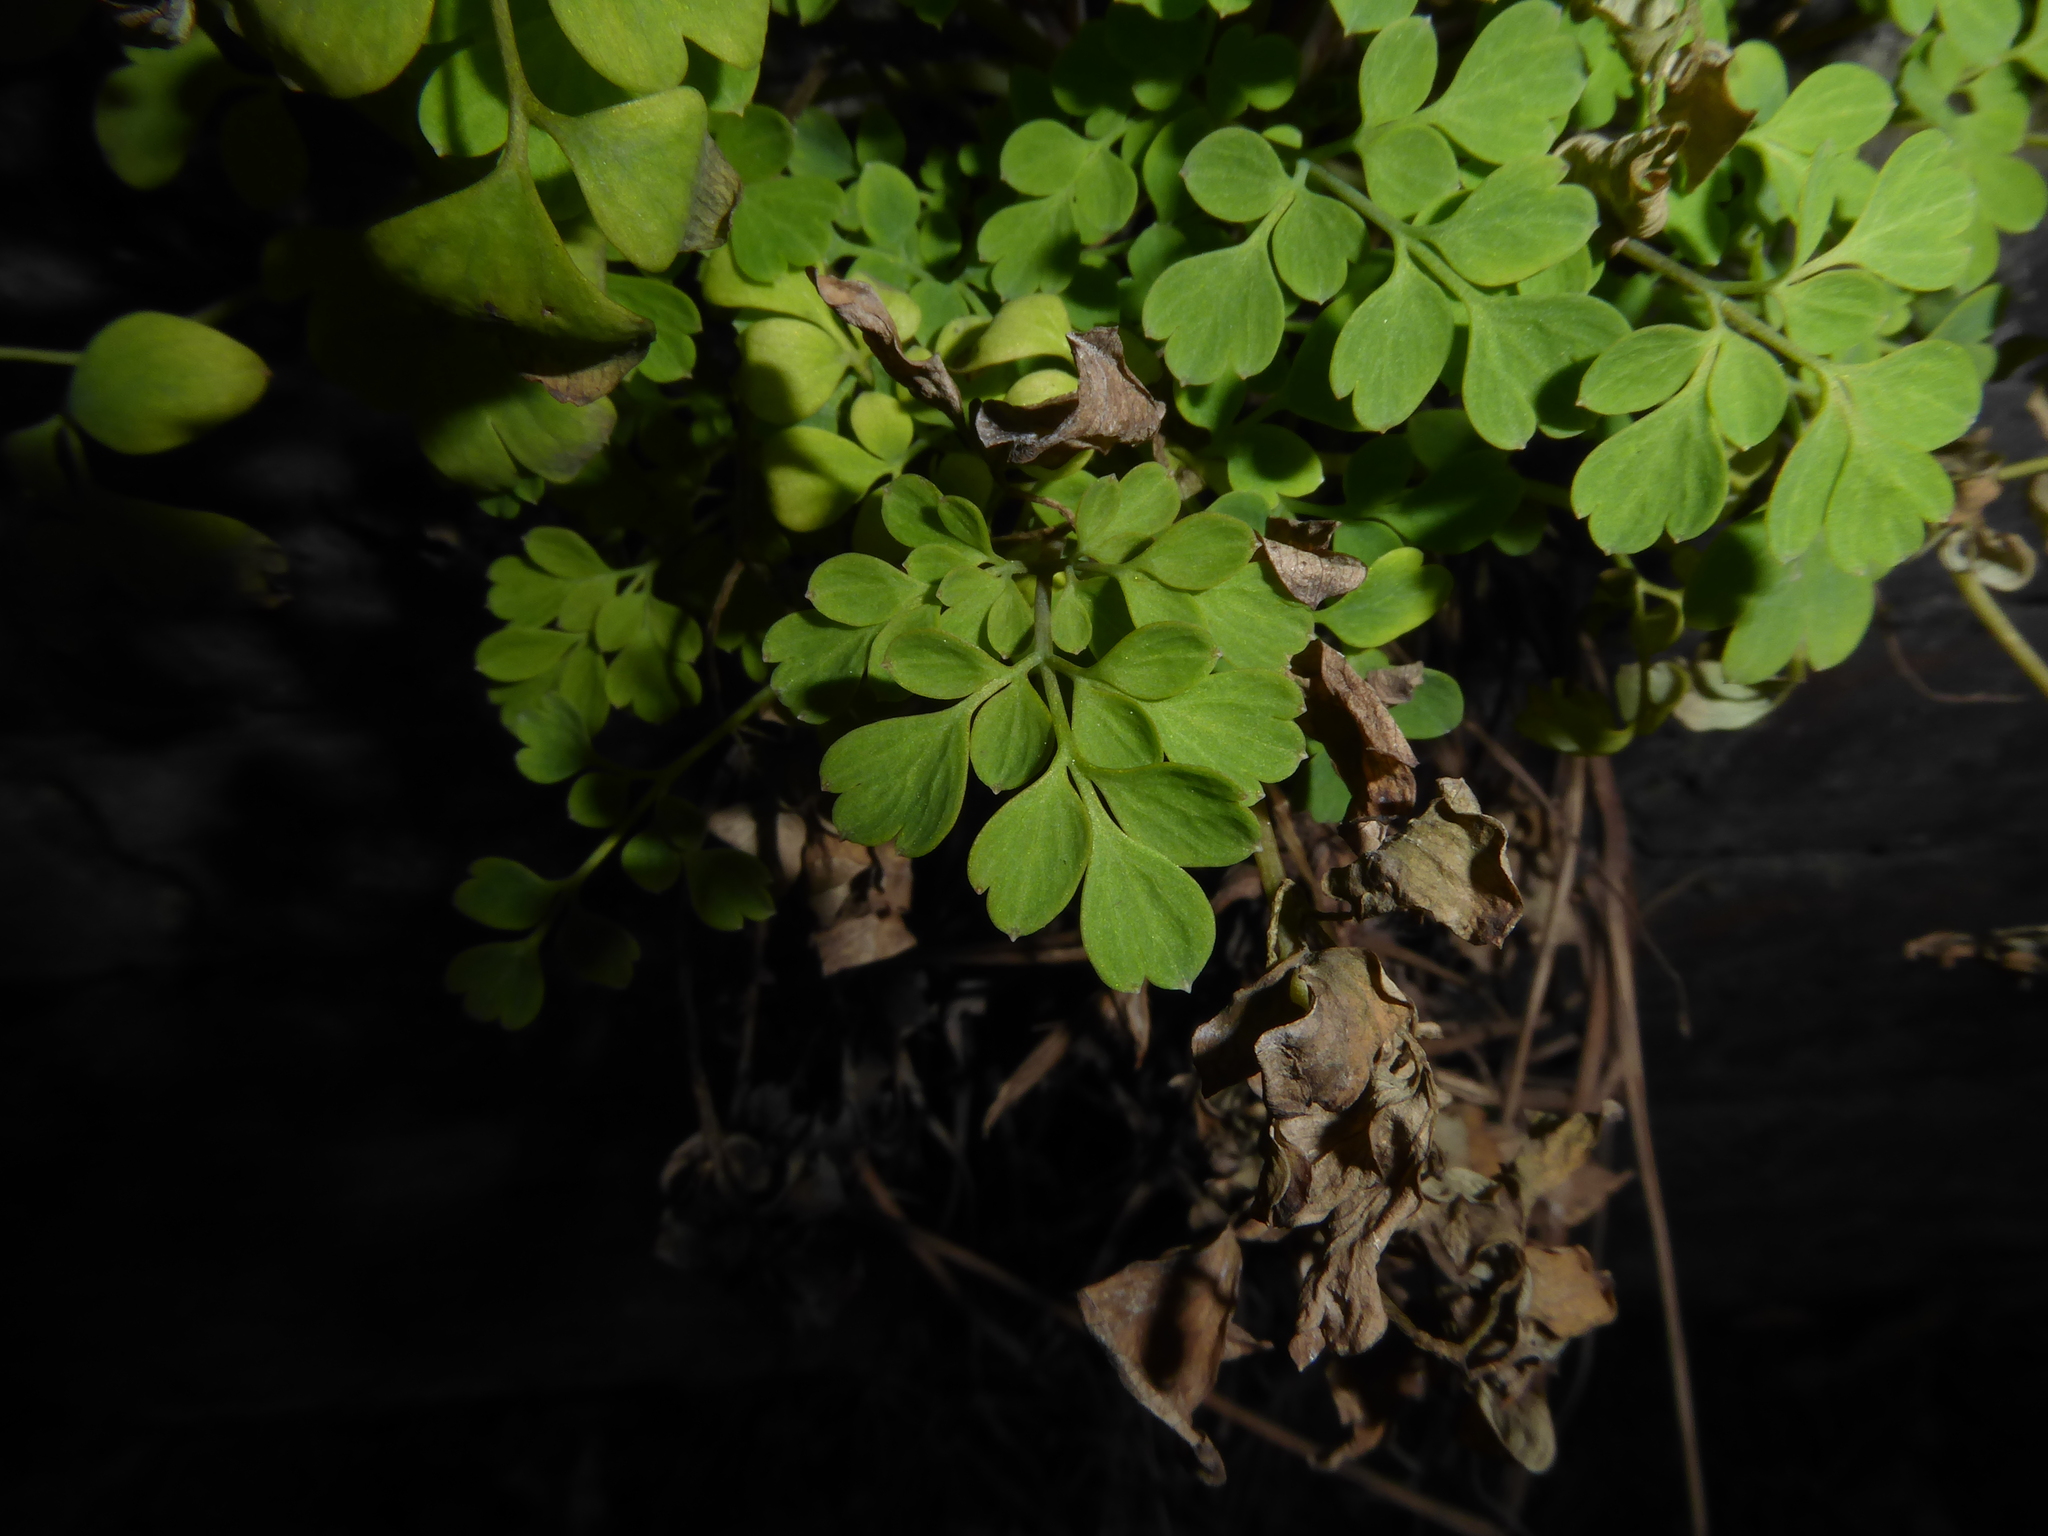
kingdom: Plantae
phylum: Tracheophyta
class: Magnoliopsida
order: Ranunculales
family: Papaveraceae
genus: Pseudofumaria
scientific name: Pseudofumaria lutea
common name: Yellow corydalis
